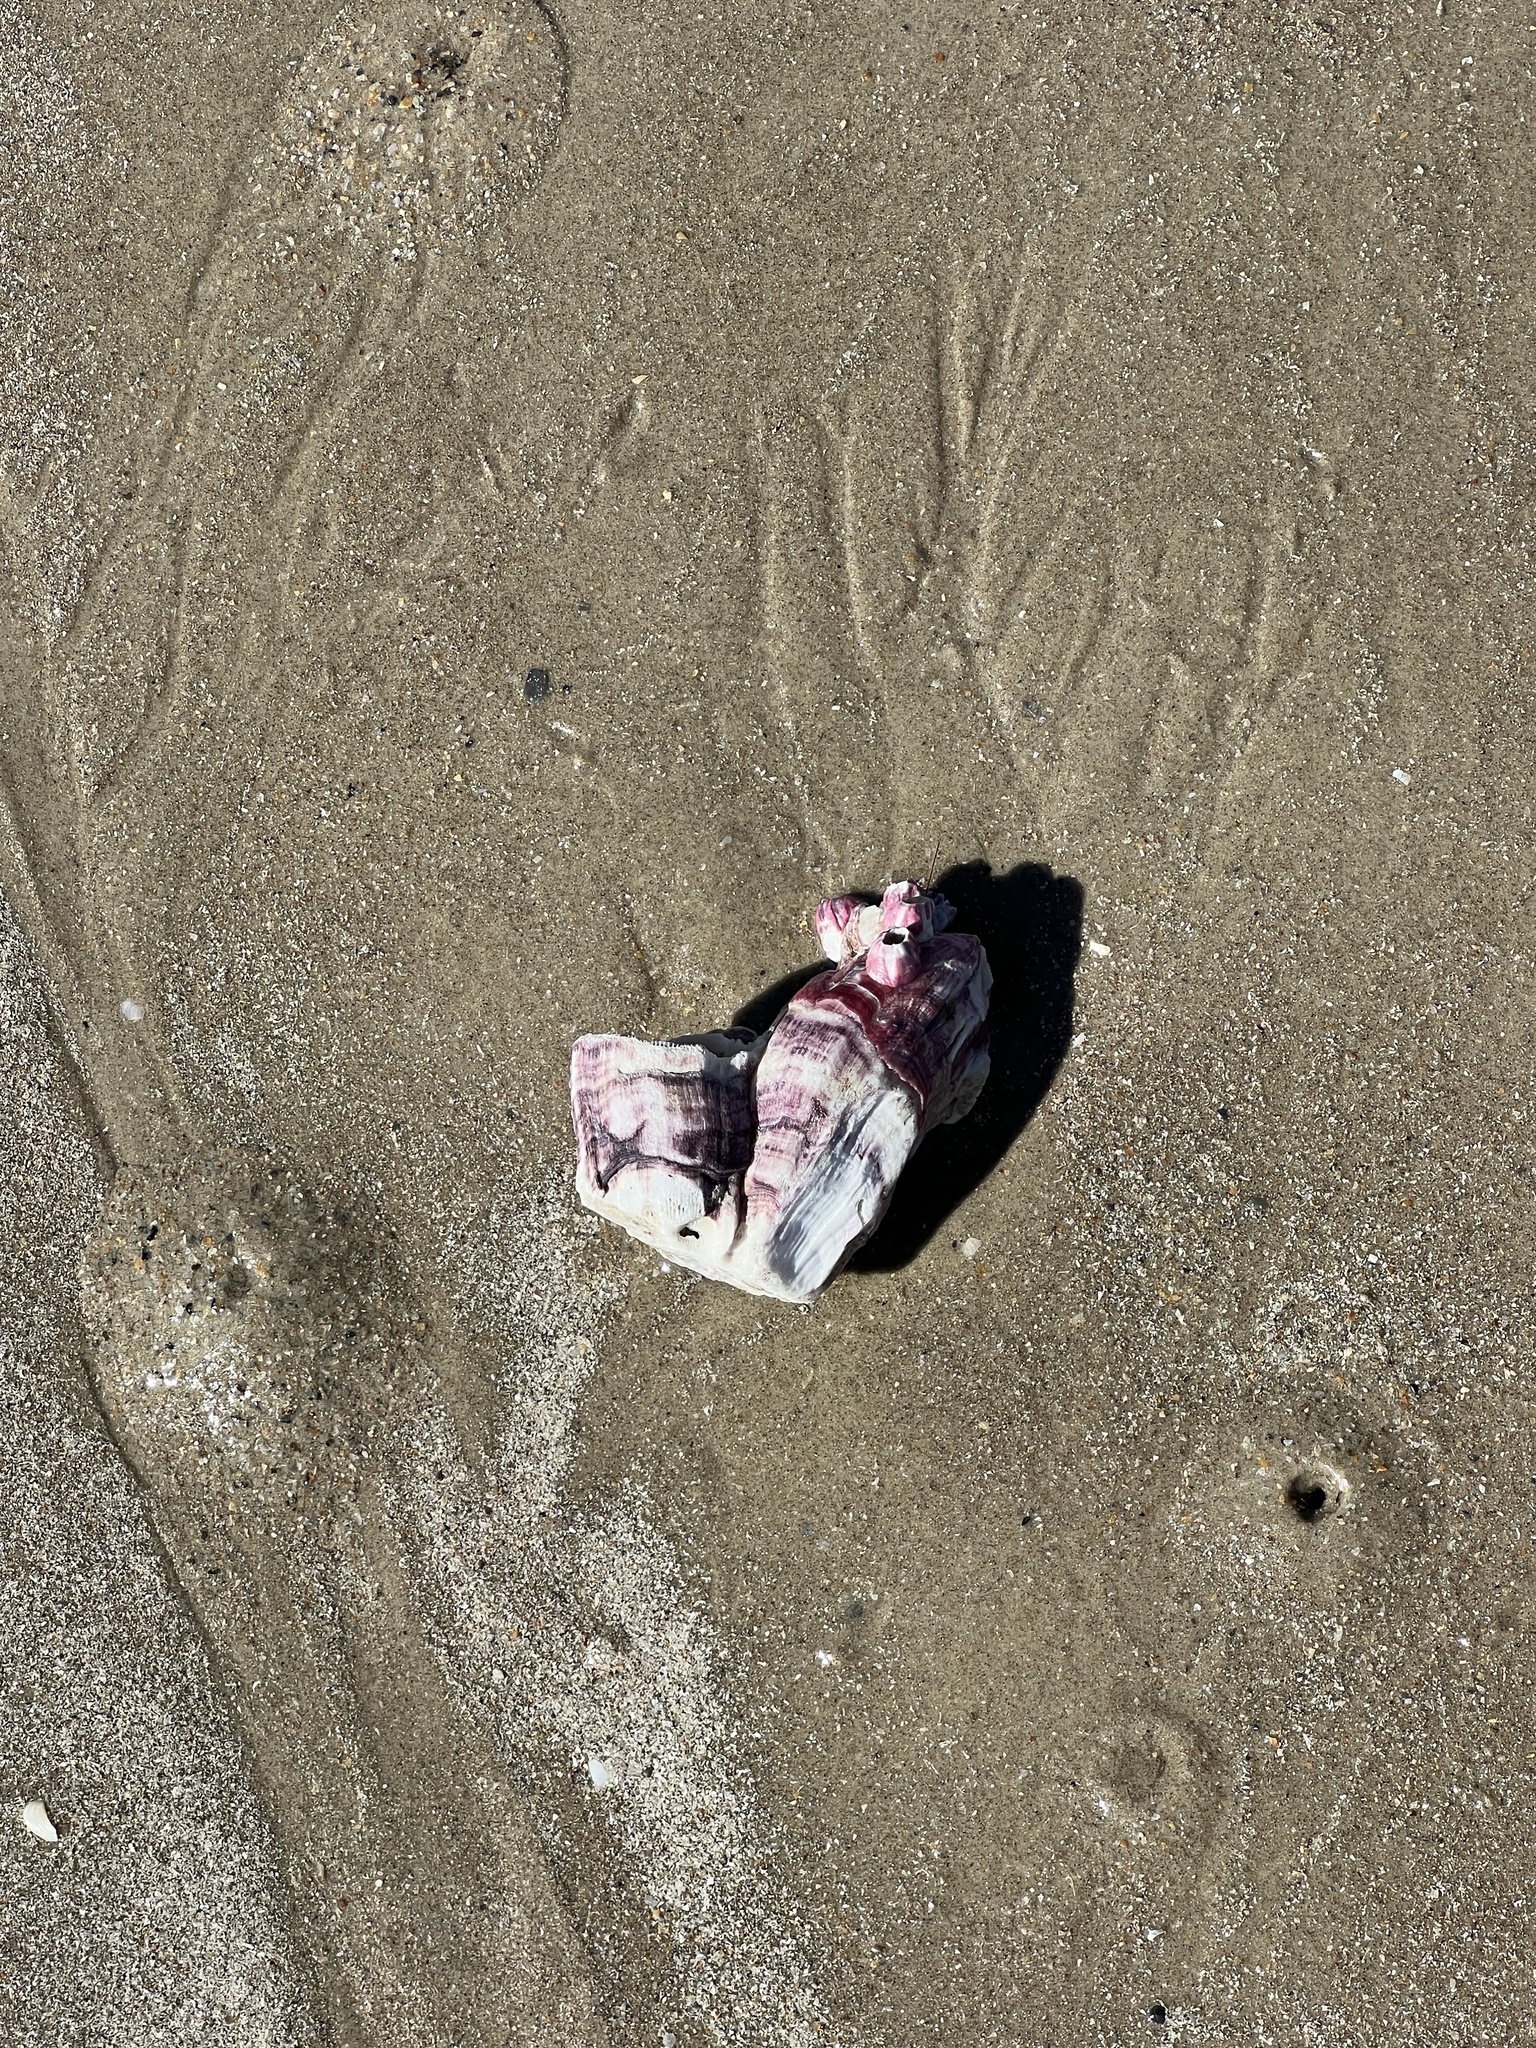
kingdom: Animalia
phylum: Arthropoda
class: Maxillopoda
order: Sessilia
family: Balanidae
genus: Megabalanus
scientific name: Megabalanus tintinnabulum
